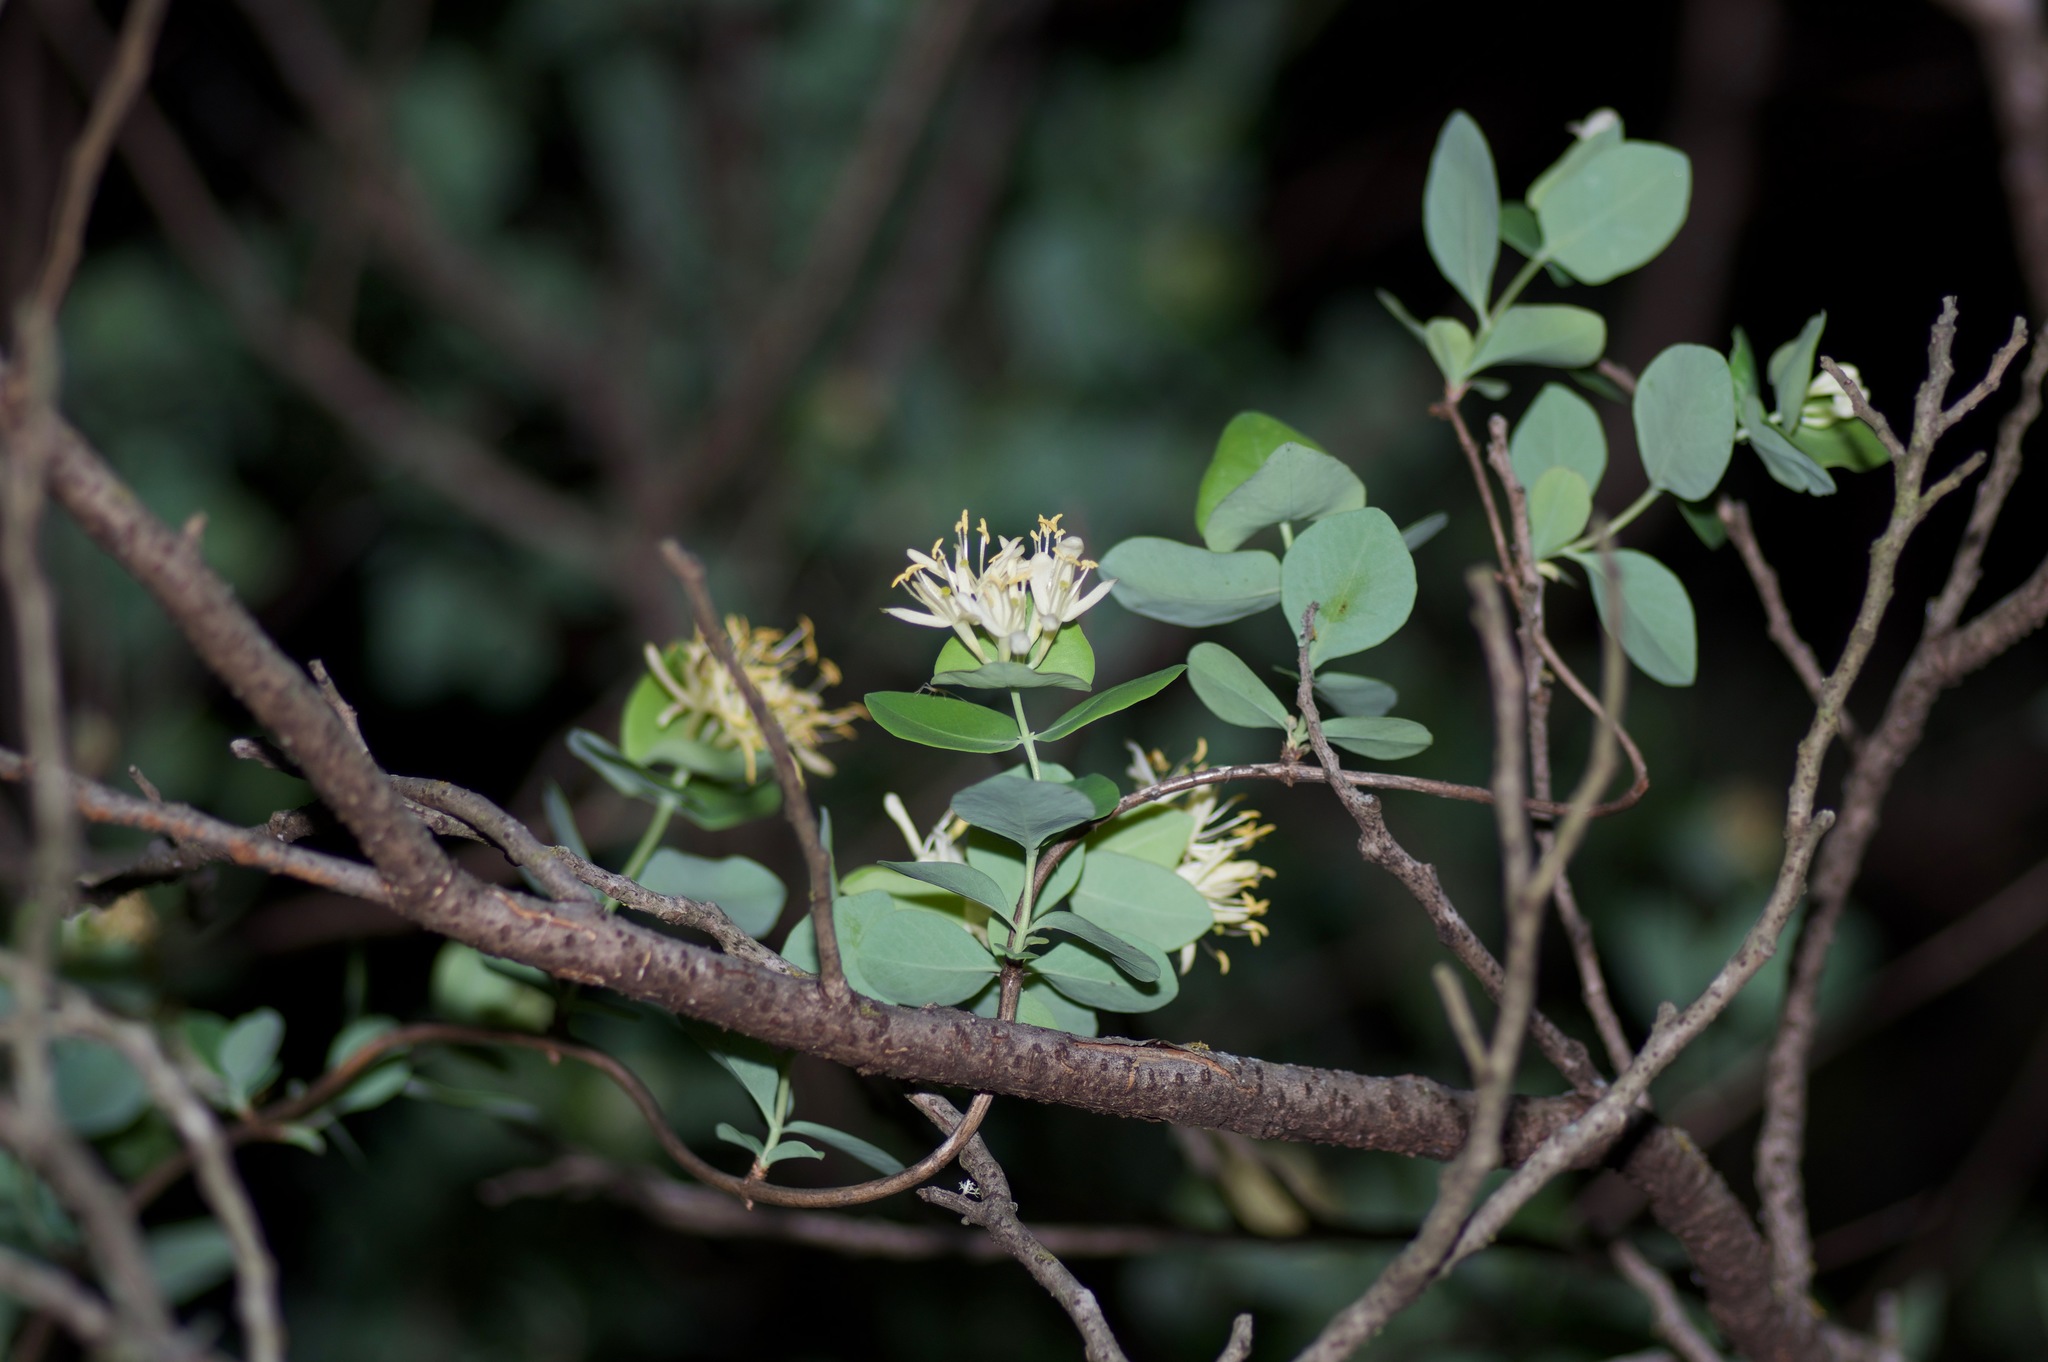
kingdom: Plantae
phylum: Tracheophyta
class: Magnoliopsida
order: Dipsacales
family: Caprifoliaceae
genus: Lonicera
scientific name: Lonicera albiflora
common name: White honeysuckle
